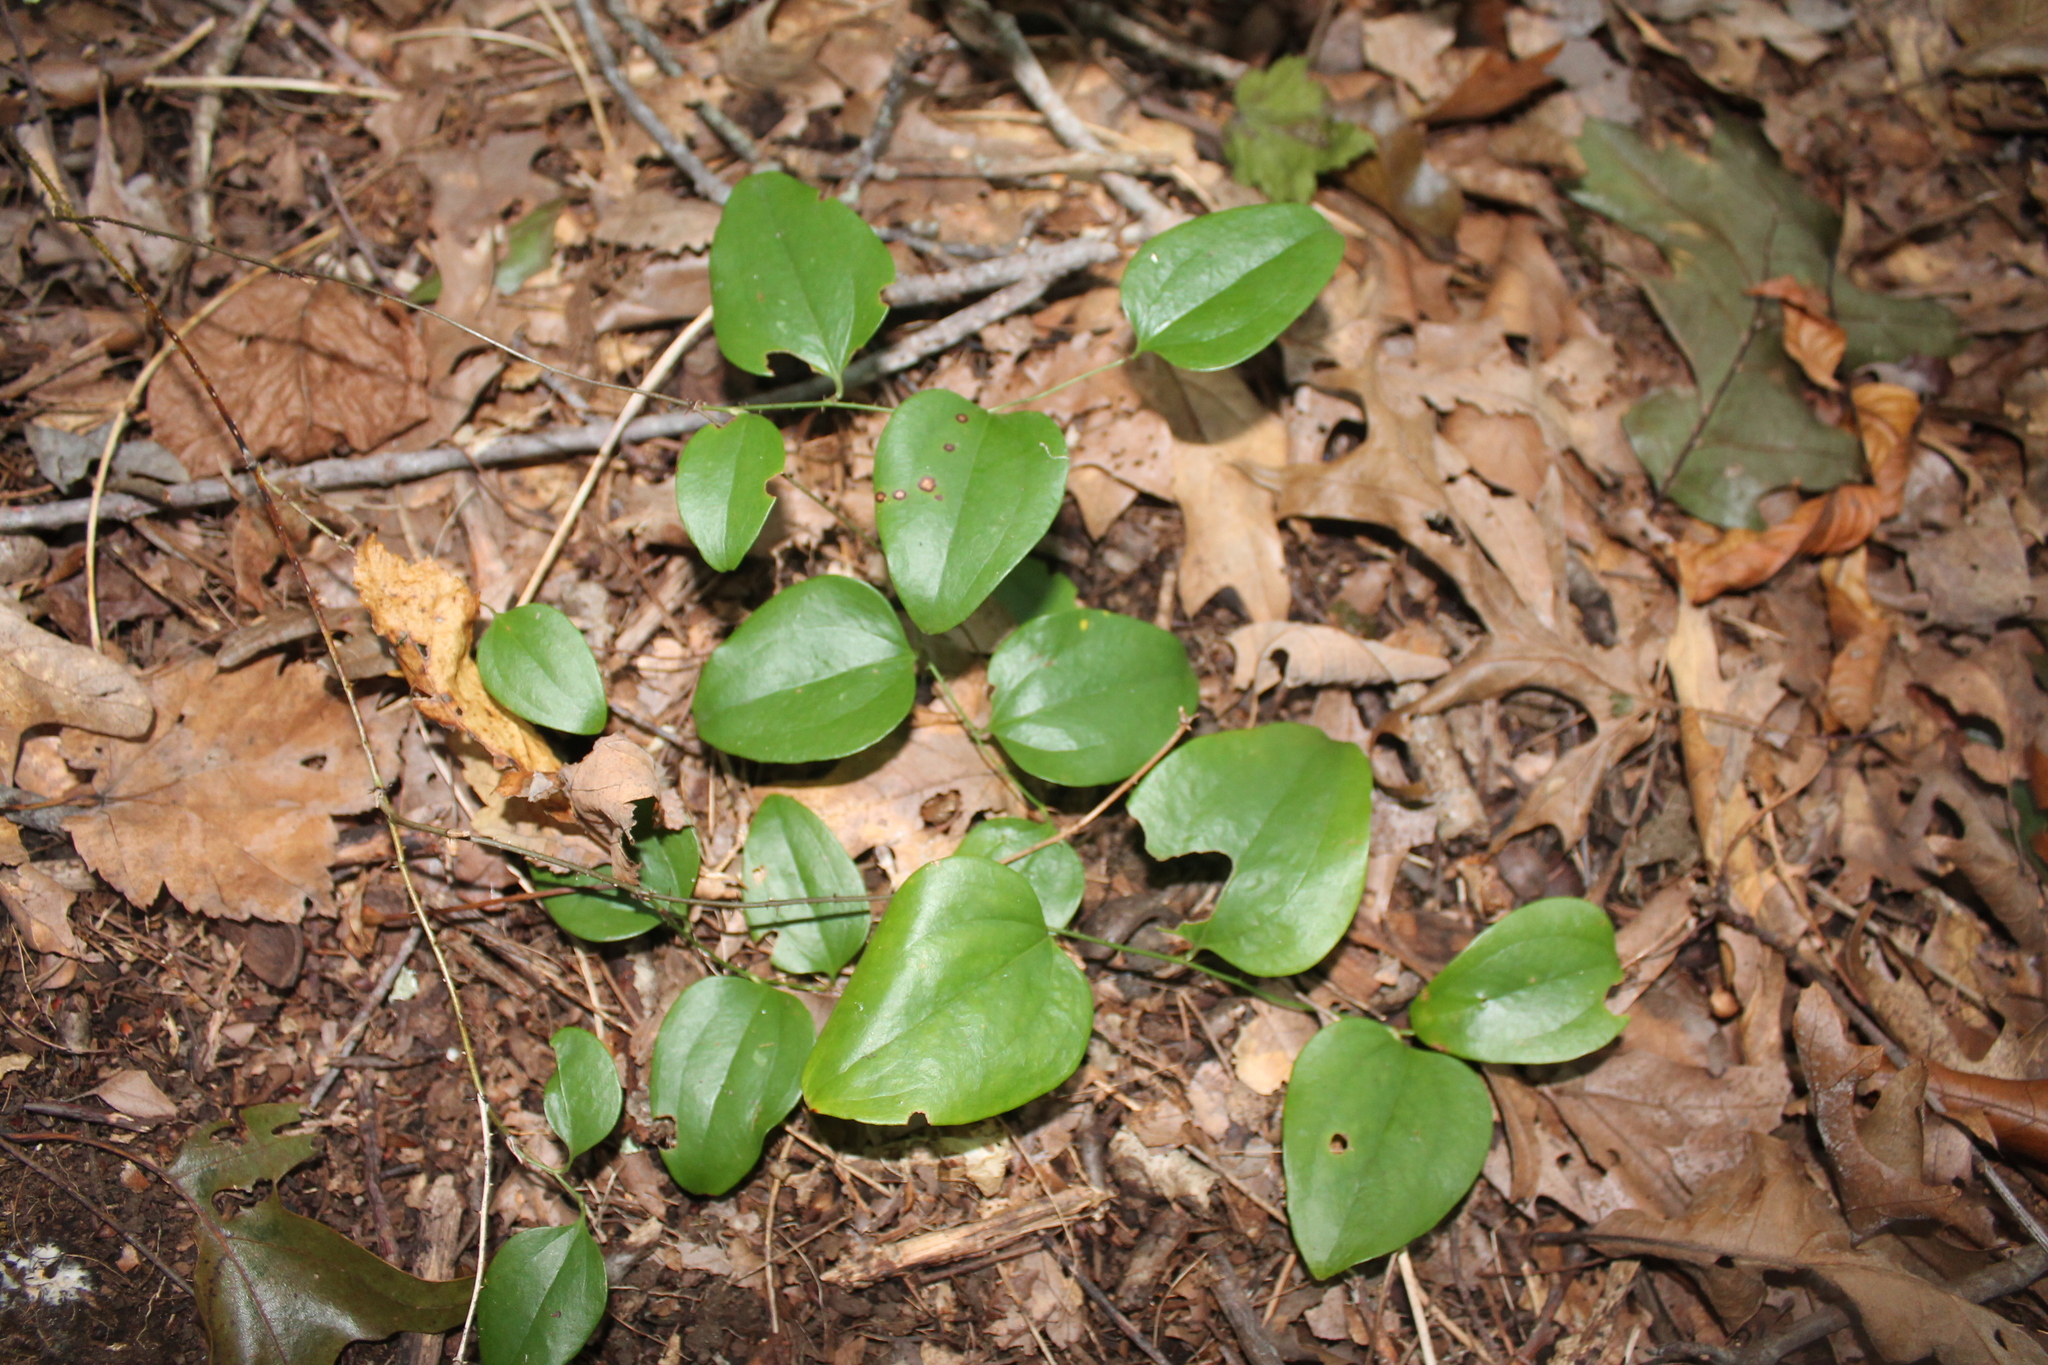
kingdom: Plantae
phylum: Tracheophyta
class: Liliopsida
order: Liliales
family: Smilacaceae
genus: Smilax
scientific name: Smilax rotundifolia
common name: Bullbriar
